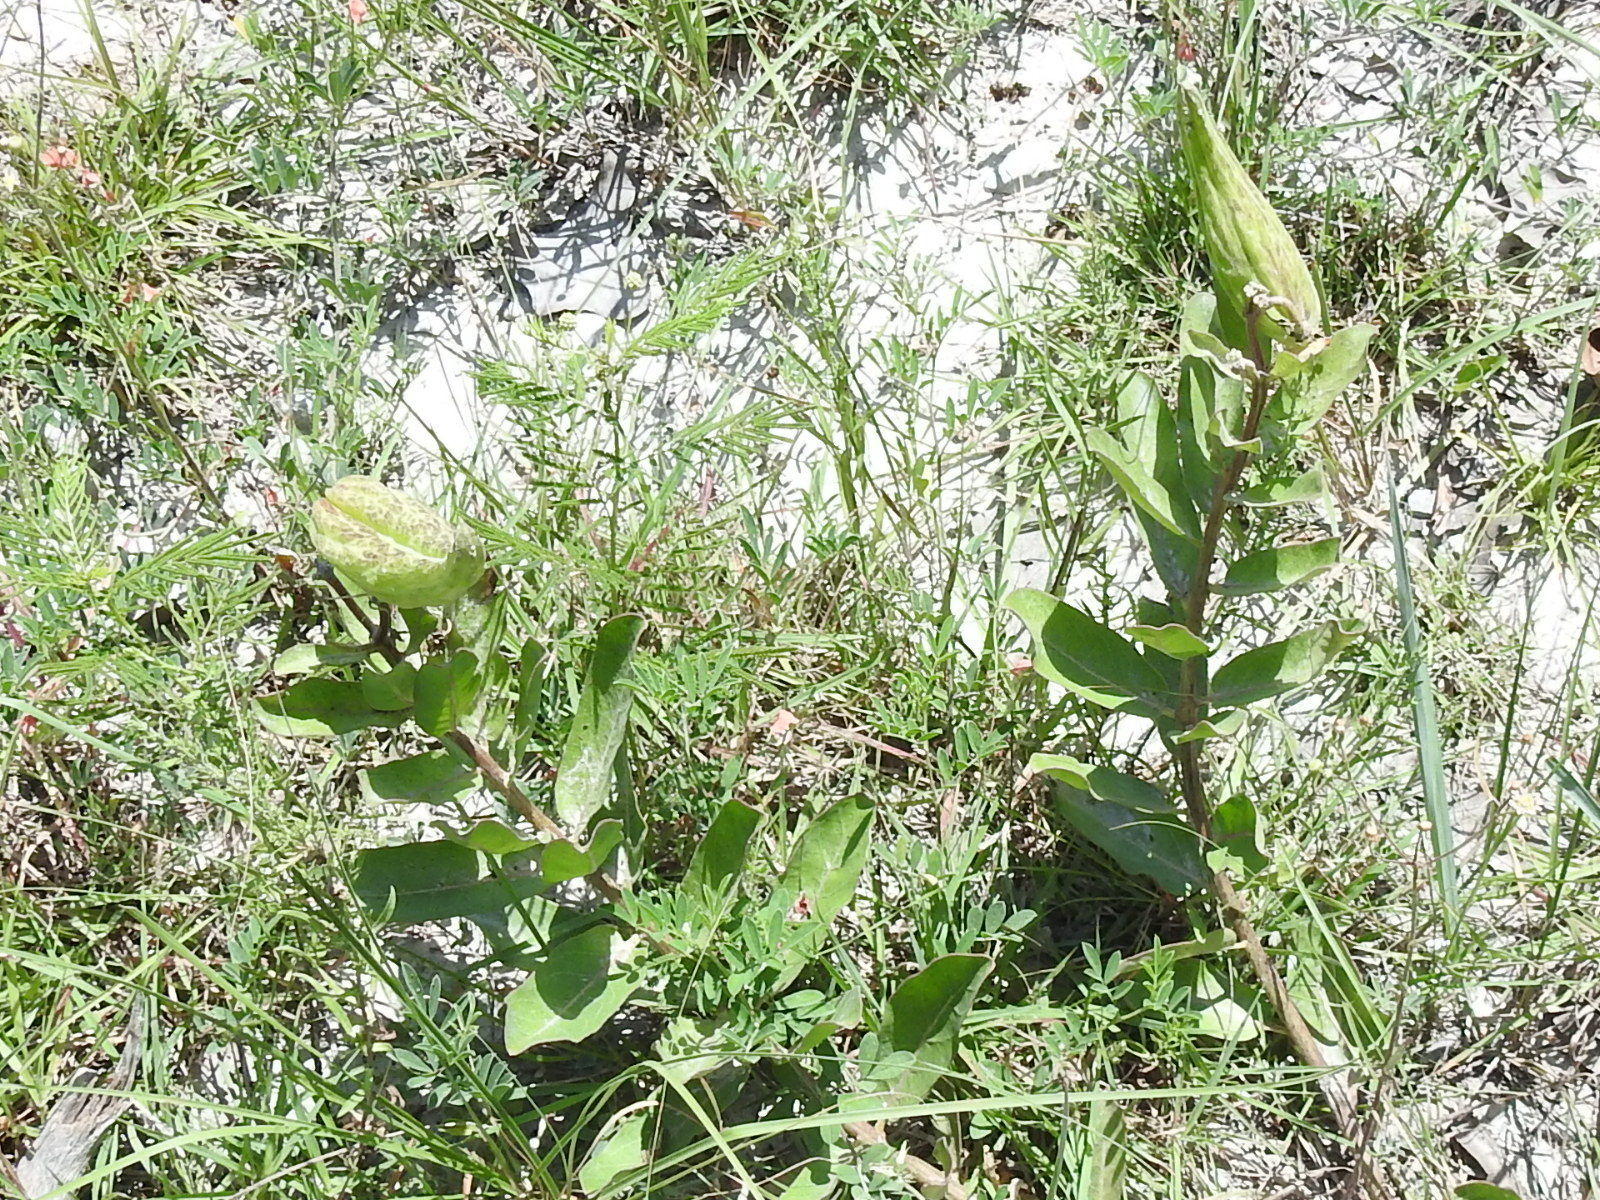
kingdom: Plantae
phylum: Tracheophyta
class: Magnoliopsida
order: Gentianales
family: Apocynaceae
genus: Asclepias
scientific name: Asclepias viridis
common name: Antelope-horns
